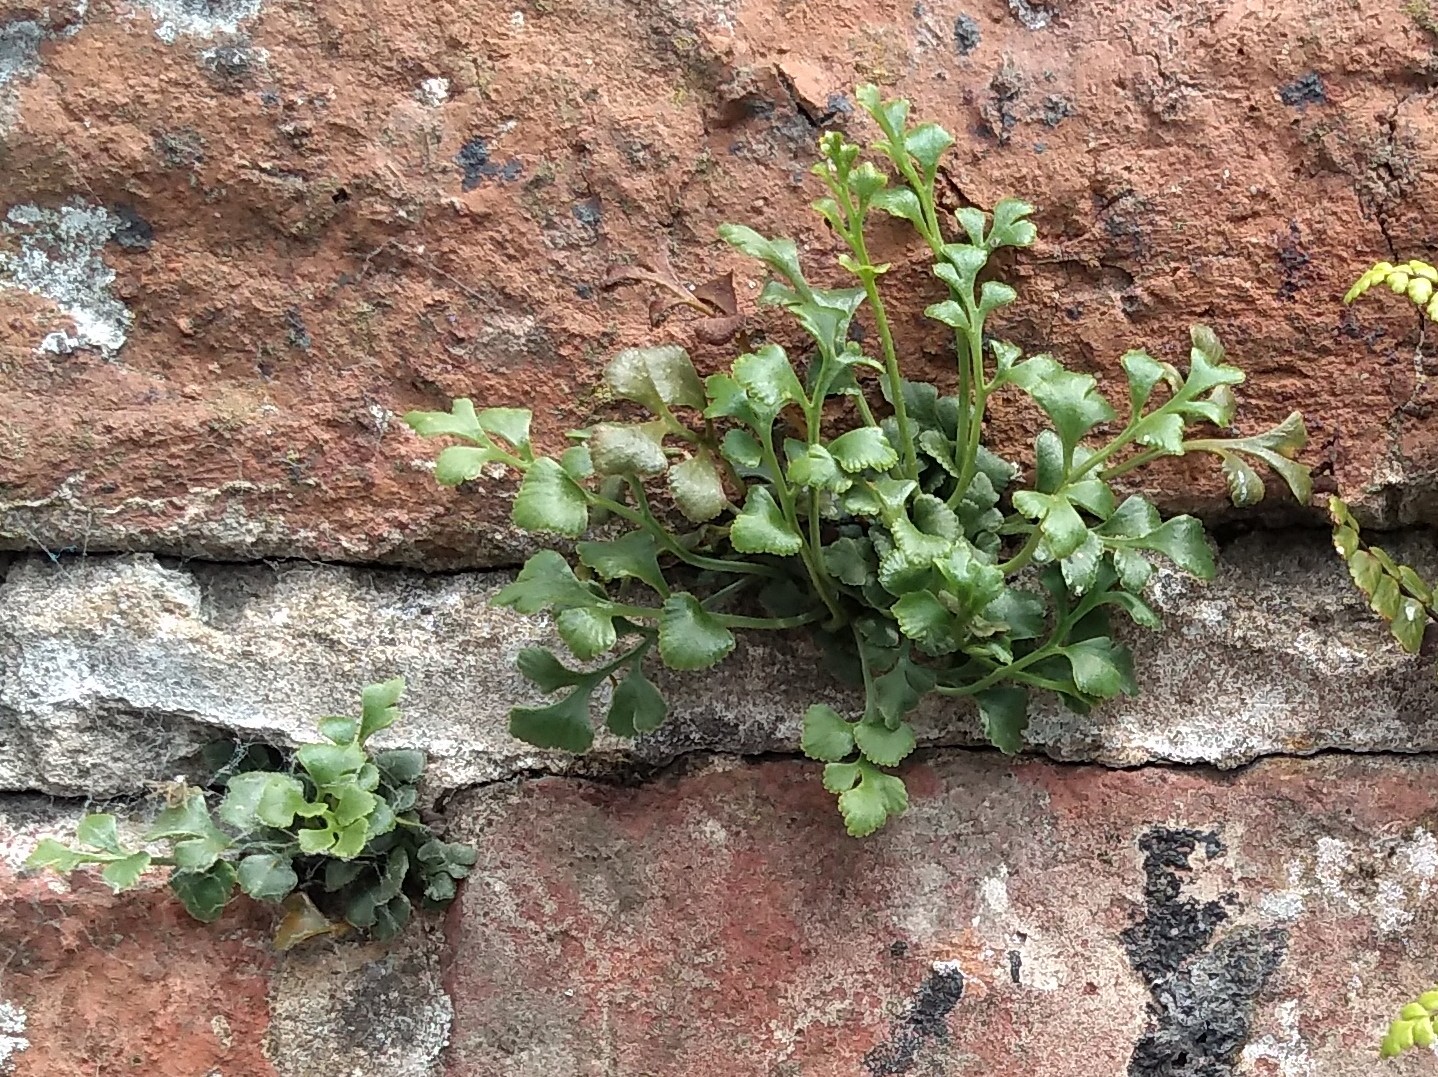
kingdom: Plantae
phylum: Tracheophyta
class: Polypodiopsida
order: Polypodiales
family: Aspleniaceae
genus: Asplenium
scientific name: Asplenium ruta-muraria
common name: Wall-rue
